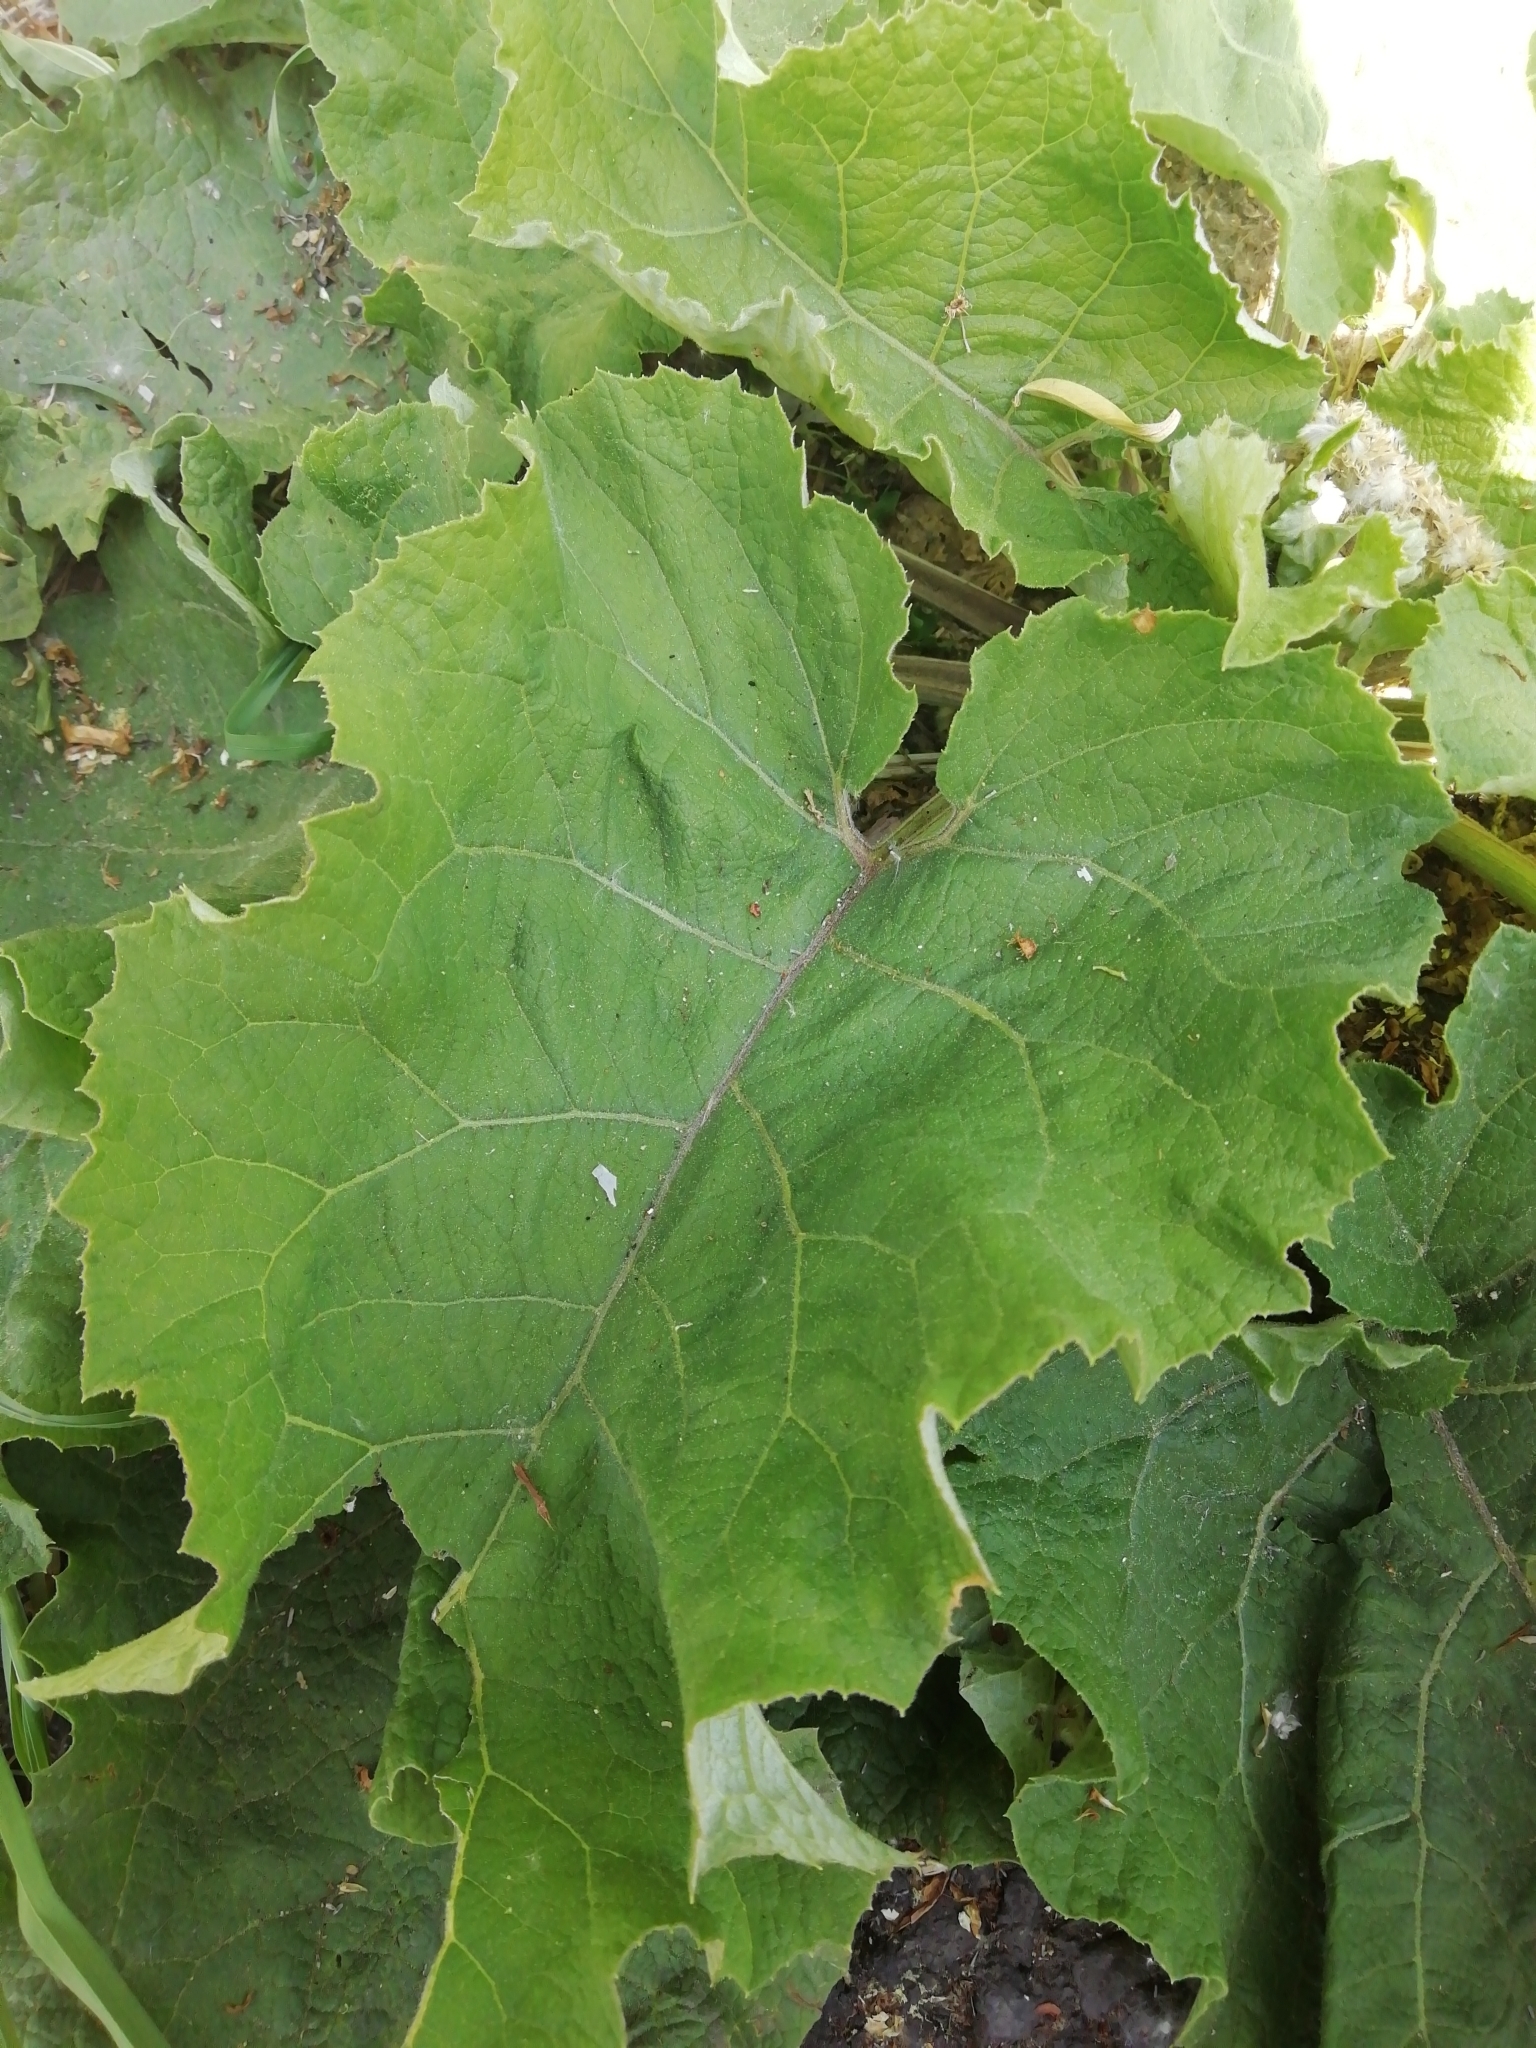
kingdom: Plantae
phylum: Tracheophyta
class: Magnoliopsida
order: Asterales
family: Asteraceae
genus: Arctium
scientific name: Arctium tomentosum
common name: Woolly burdock
